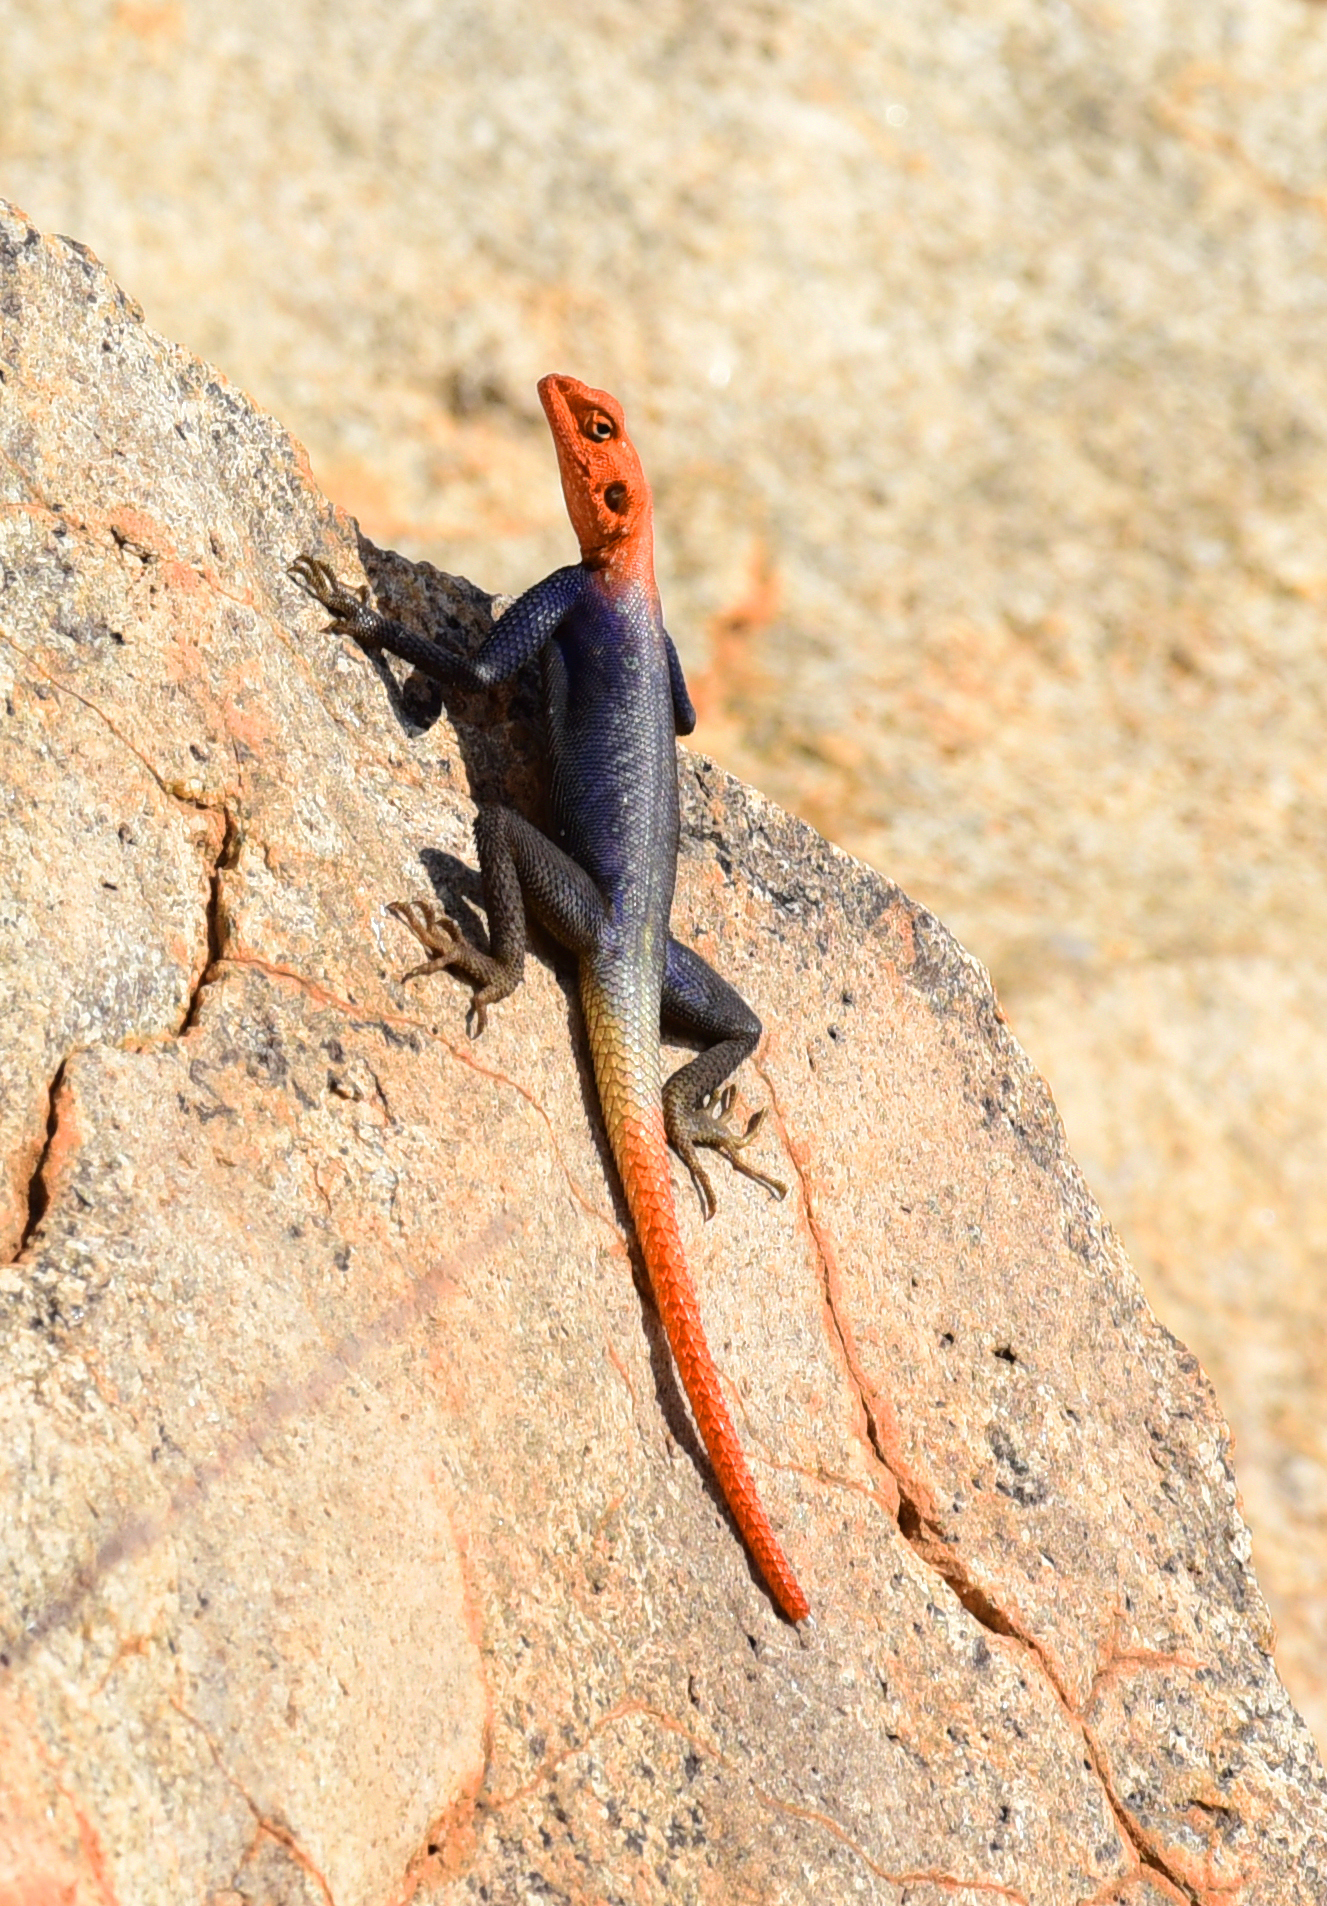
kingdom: Animalia
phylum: Chordata
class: Squamata
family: Agamidae
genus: Agama
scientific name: Agama planiceps
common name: Namib rock agama
